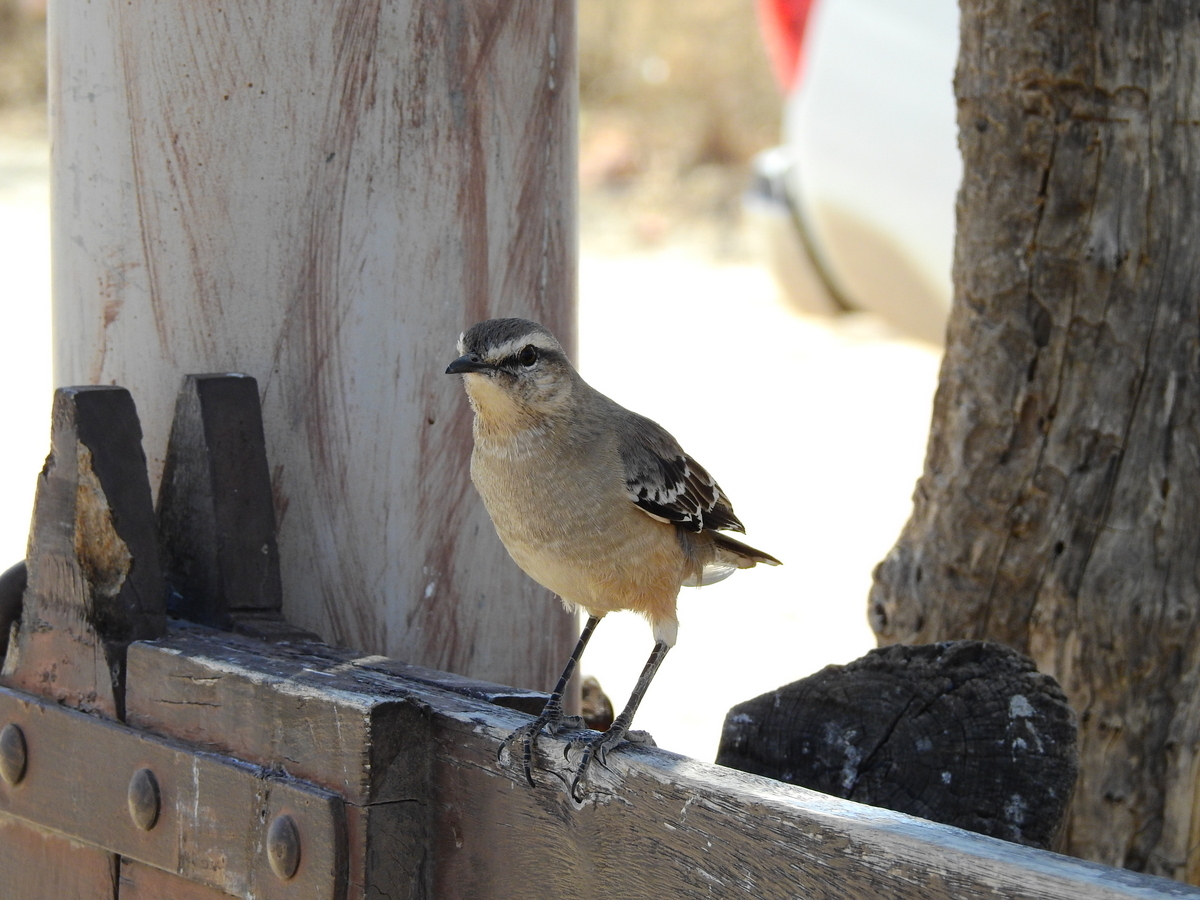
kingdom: Animalia
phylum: Chordata
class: Aves
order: Passeriformes
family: Mimidae
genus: Mimus
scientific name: Mimus saturninus
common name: Chalk-browed mockingbird
